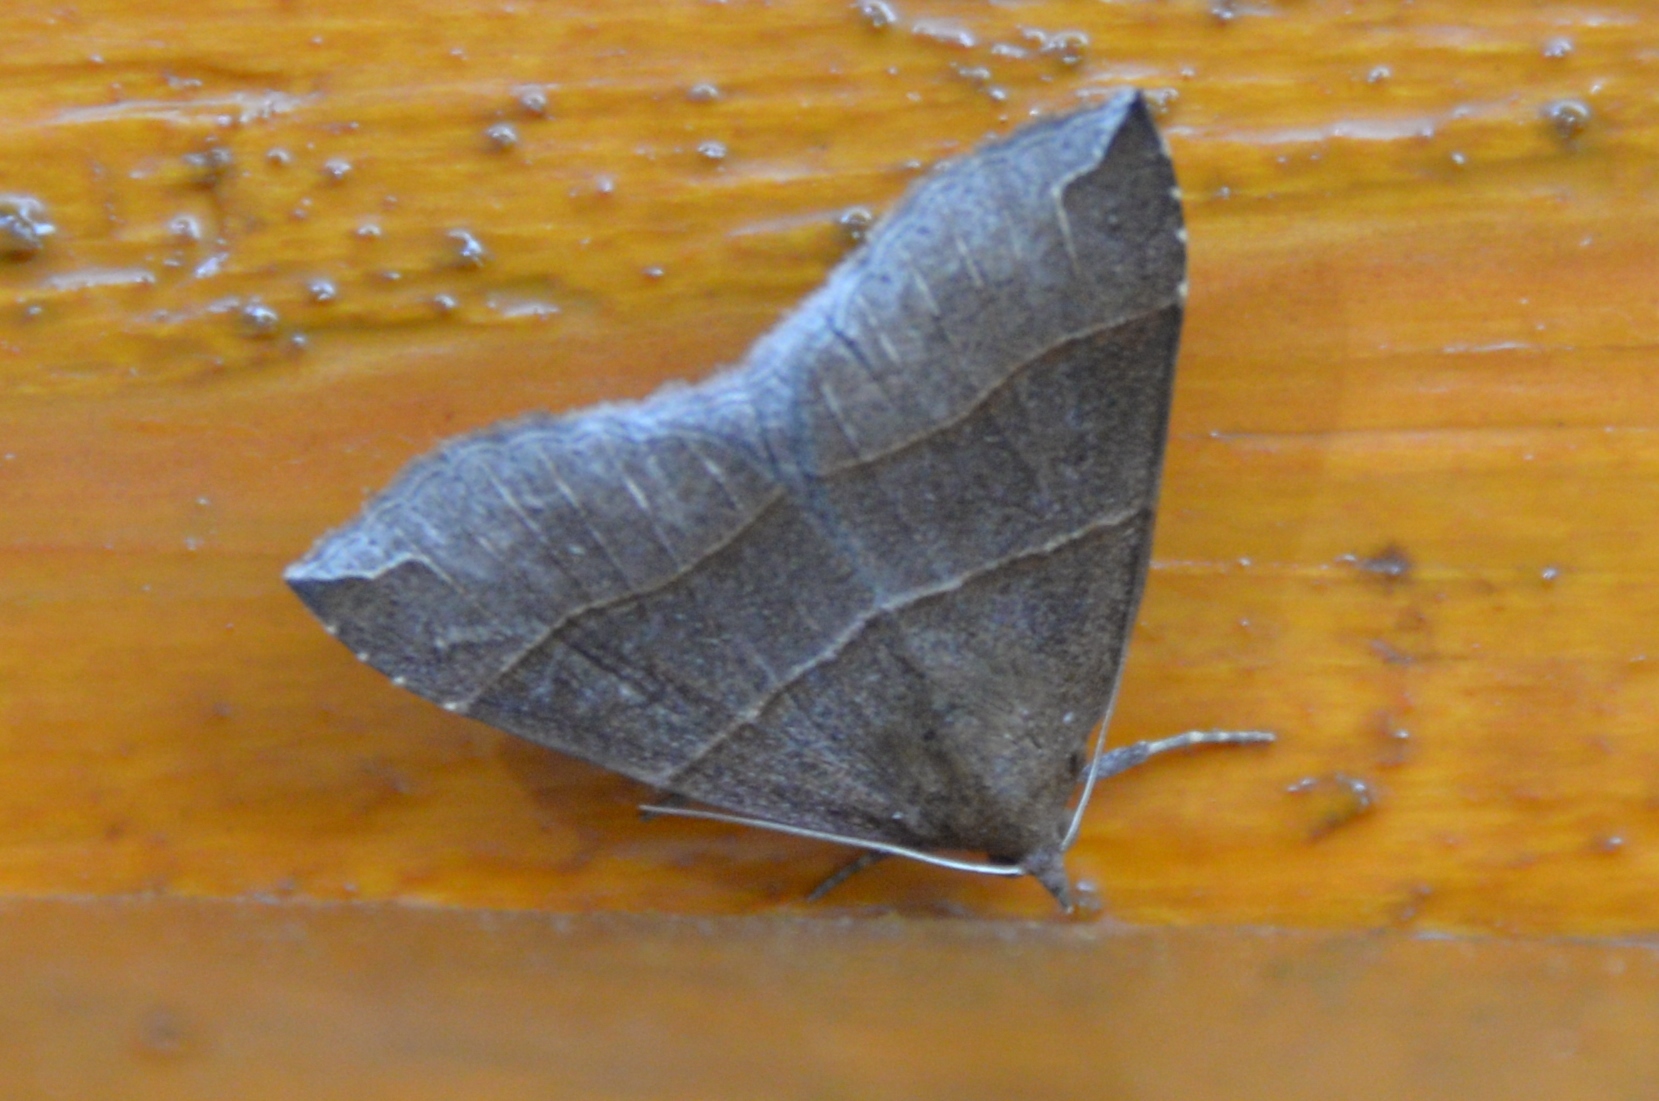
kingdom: Animalia
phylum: Arthropoda
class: Insecta
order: Lepidoptera
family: Erebidae
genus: Parallelia
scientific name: Parallelia bistriaris
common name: Maple looper moth
